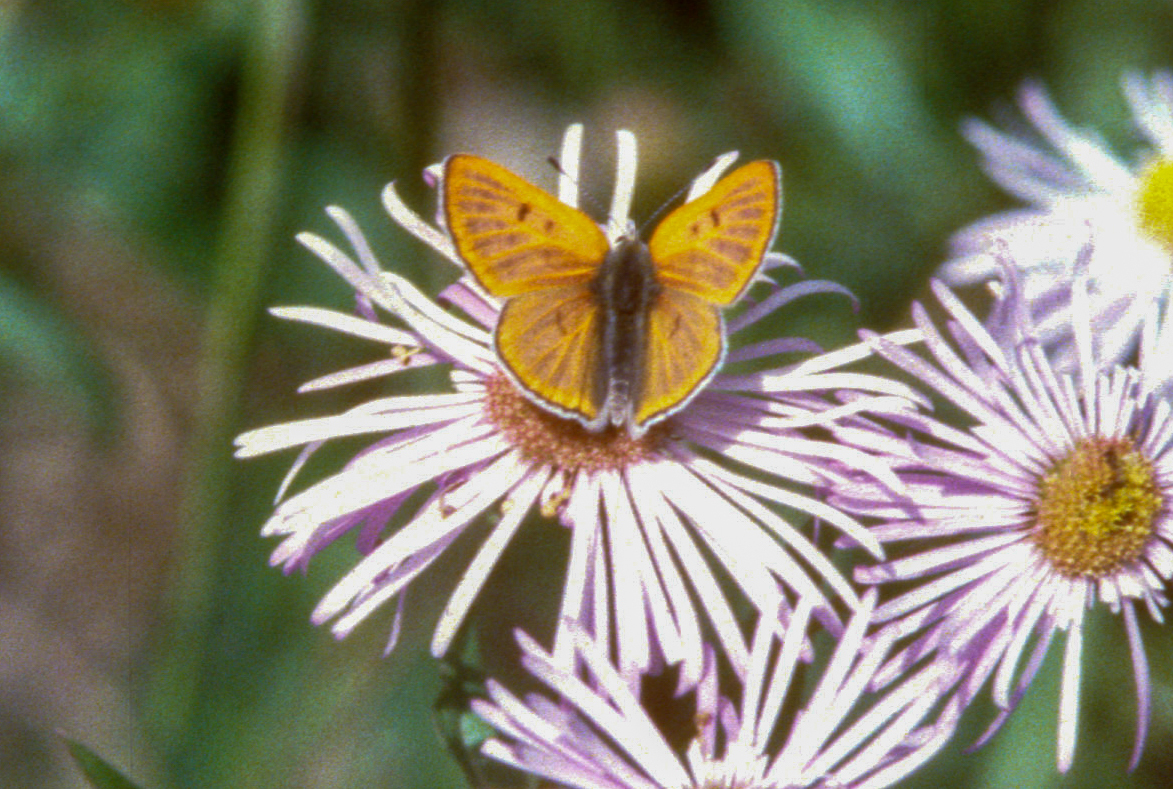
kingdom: Animalia
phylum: Arthropoda
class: Insecta
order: Lepidoptera
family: Lycaenidae
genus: Tharsalea
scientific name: Tharsalea rubidus
